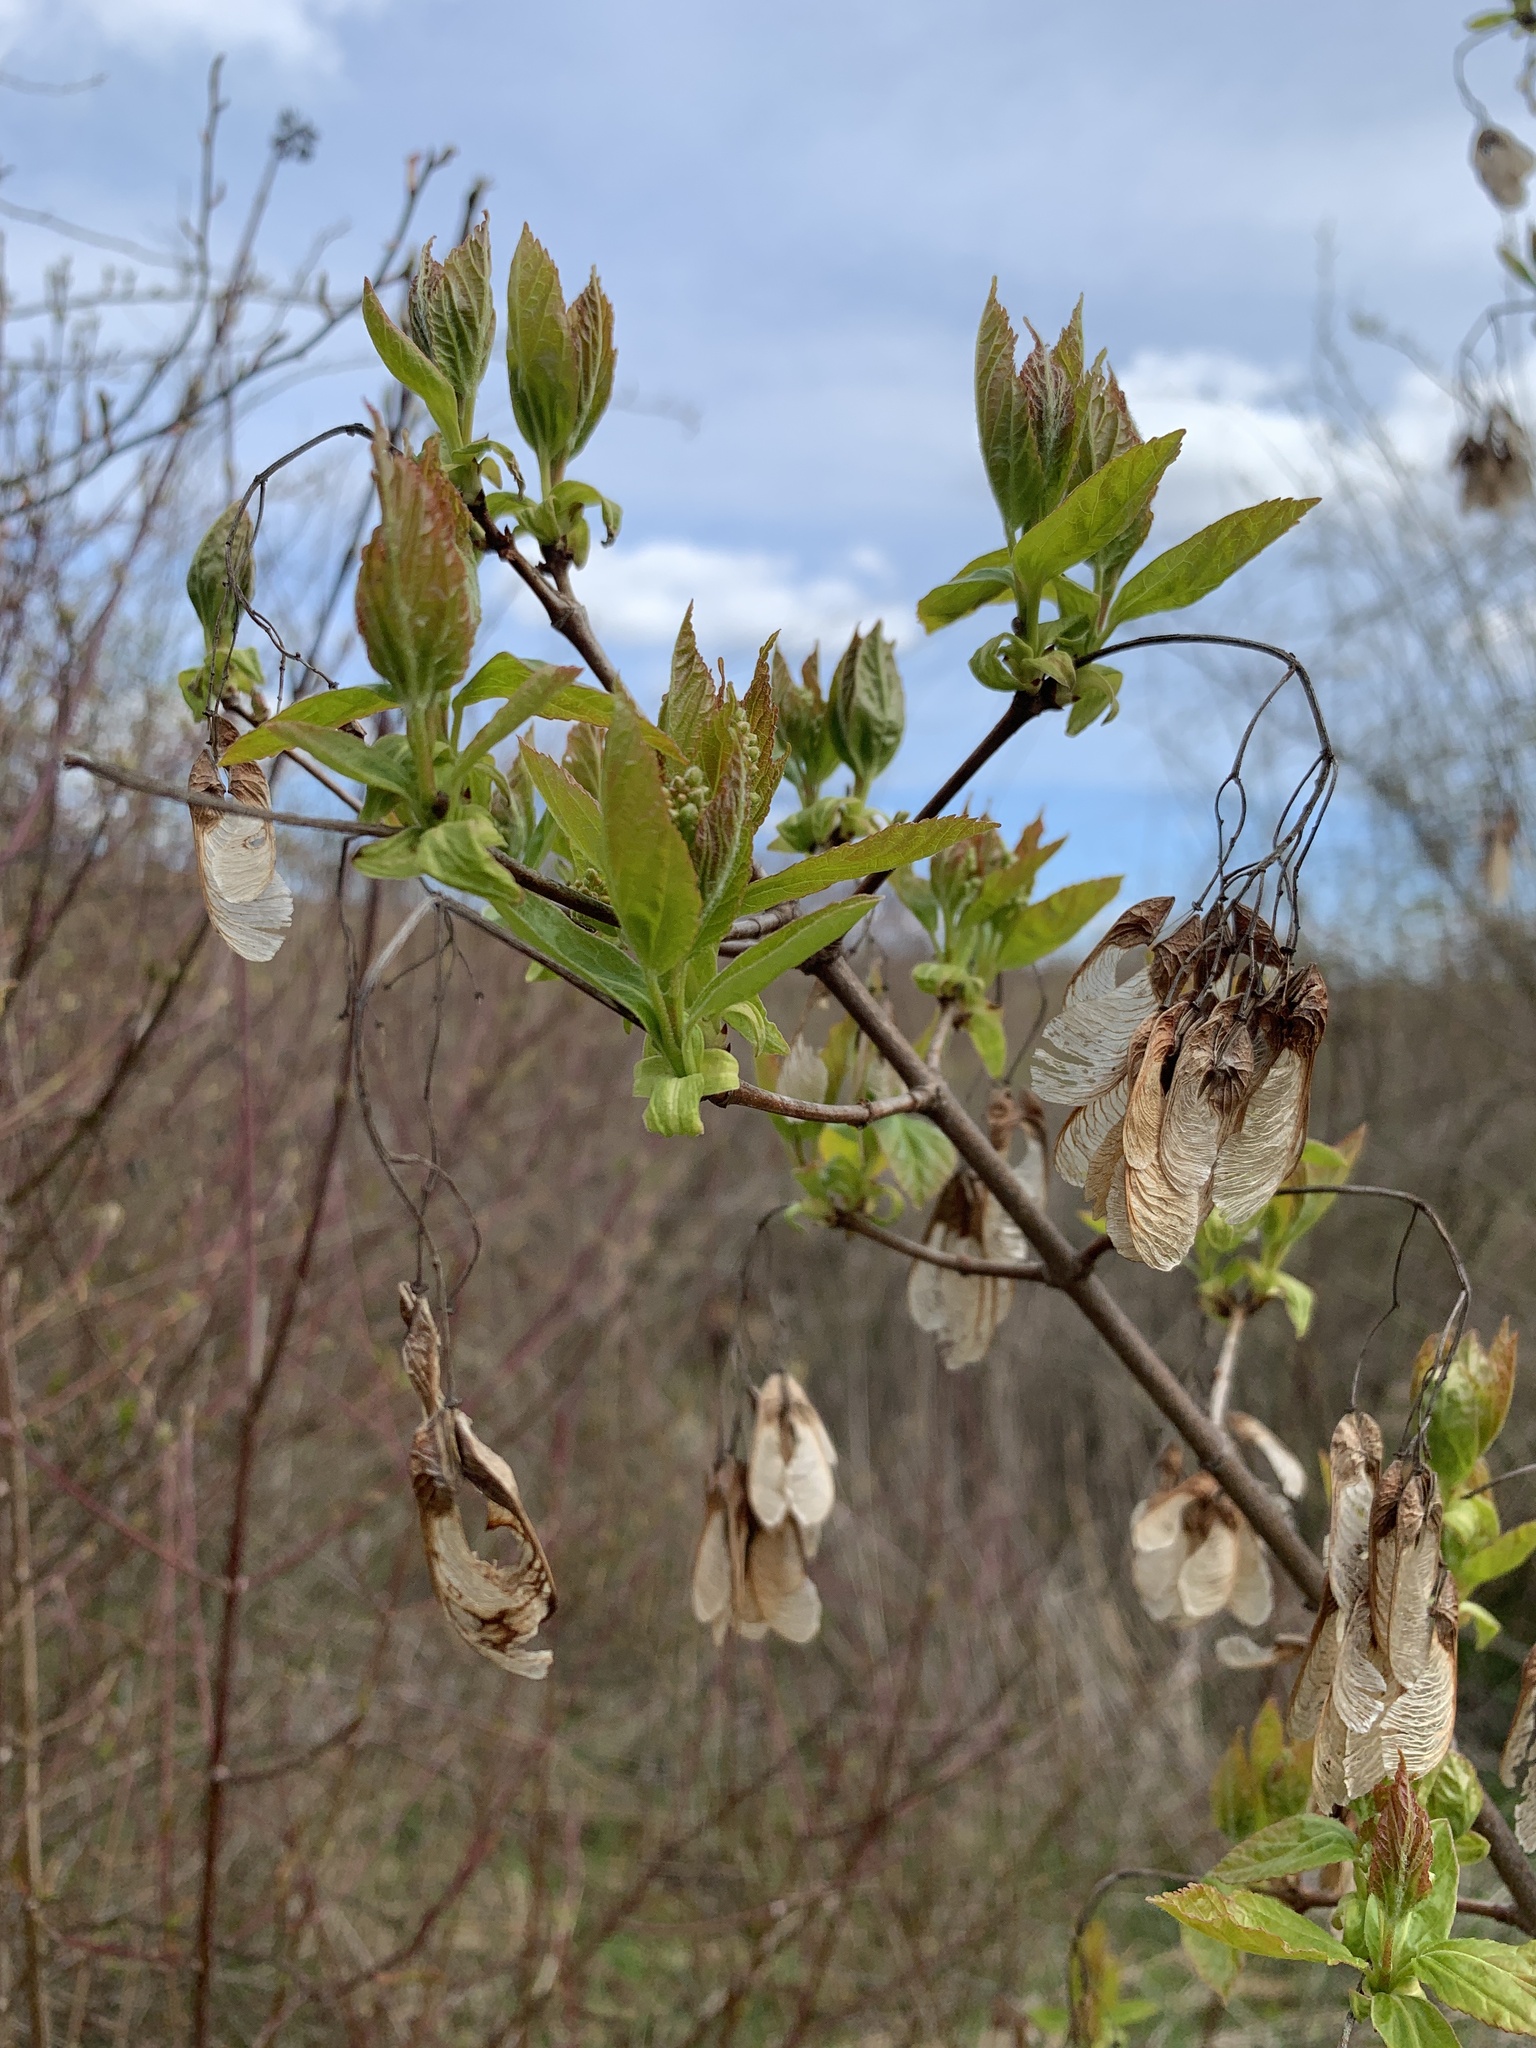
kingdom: Plantae
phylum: Tracheophyta
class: Magnoliopsida
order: Sapindales
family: Sapindaceae
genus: Acer
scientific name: Acer negundo
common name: Ashleaf maple
